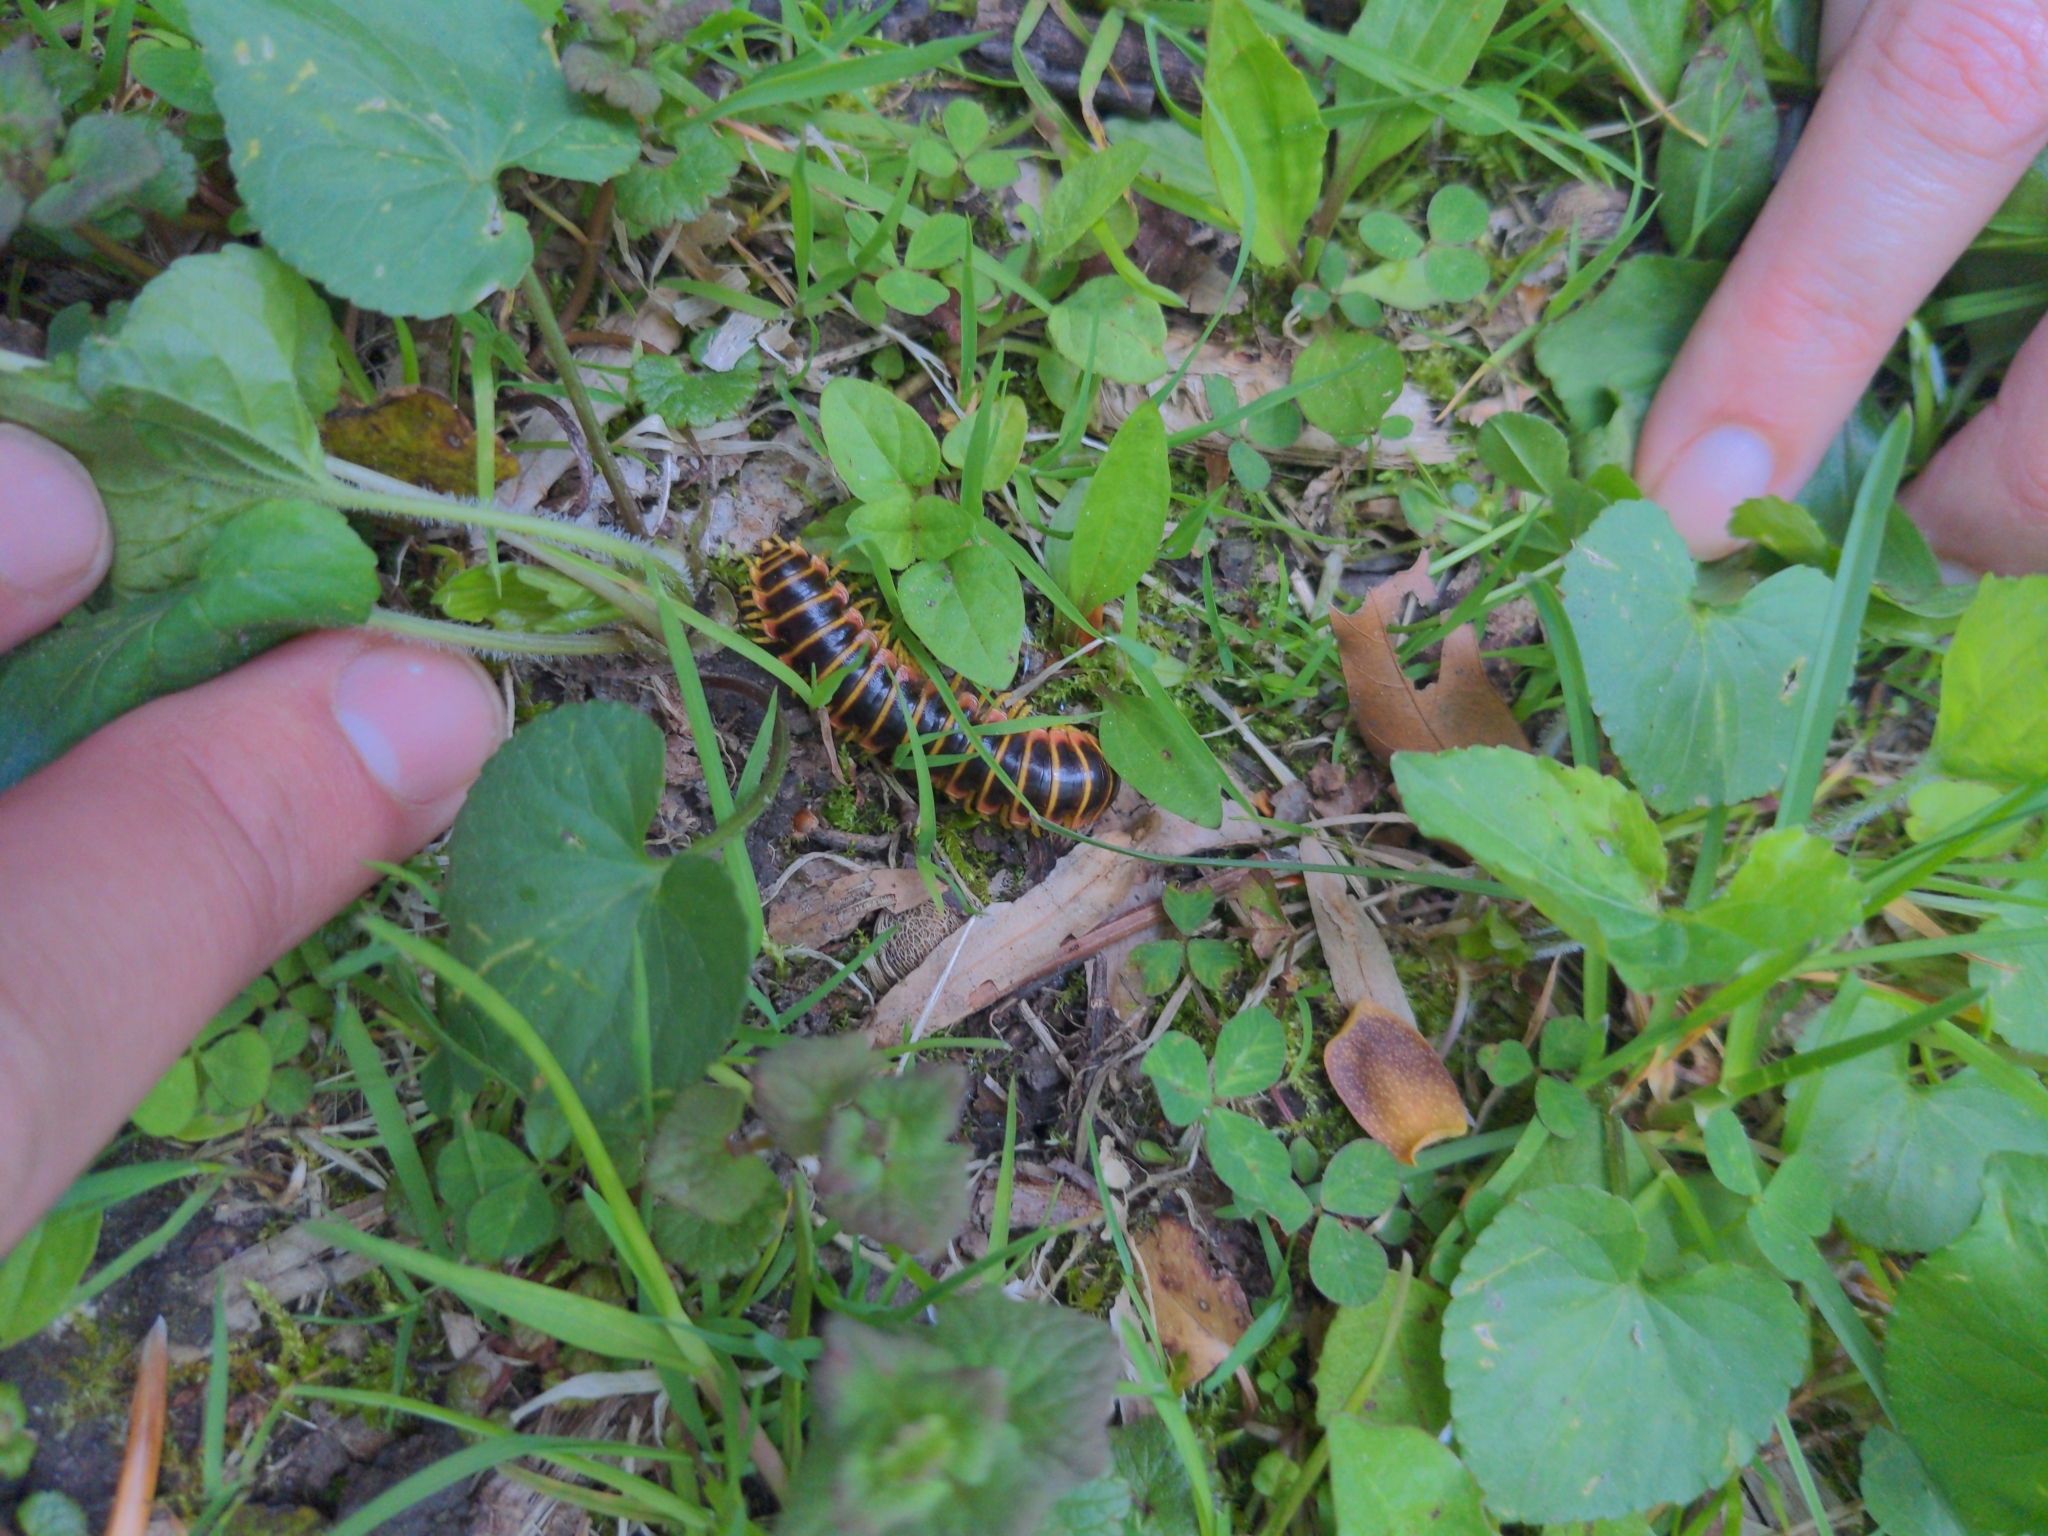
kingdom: Animalia
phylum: Arthropoda
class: Diplopoda
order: Polydesmida
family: Xystodesmidae
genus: Apheloria
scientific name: Apheloria virginiensis
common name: Black-and-gold flat millipede
